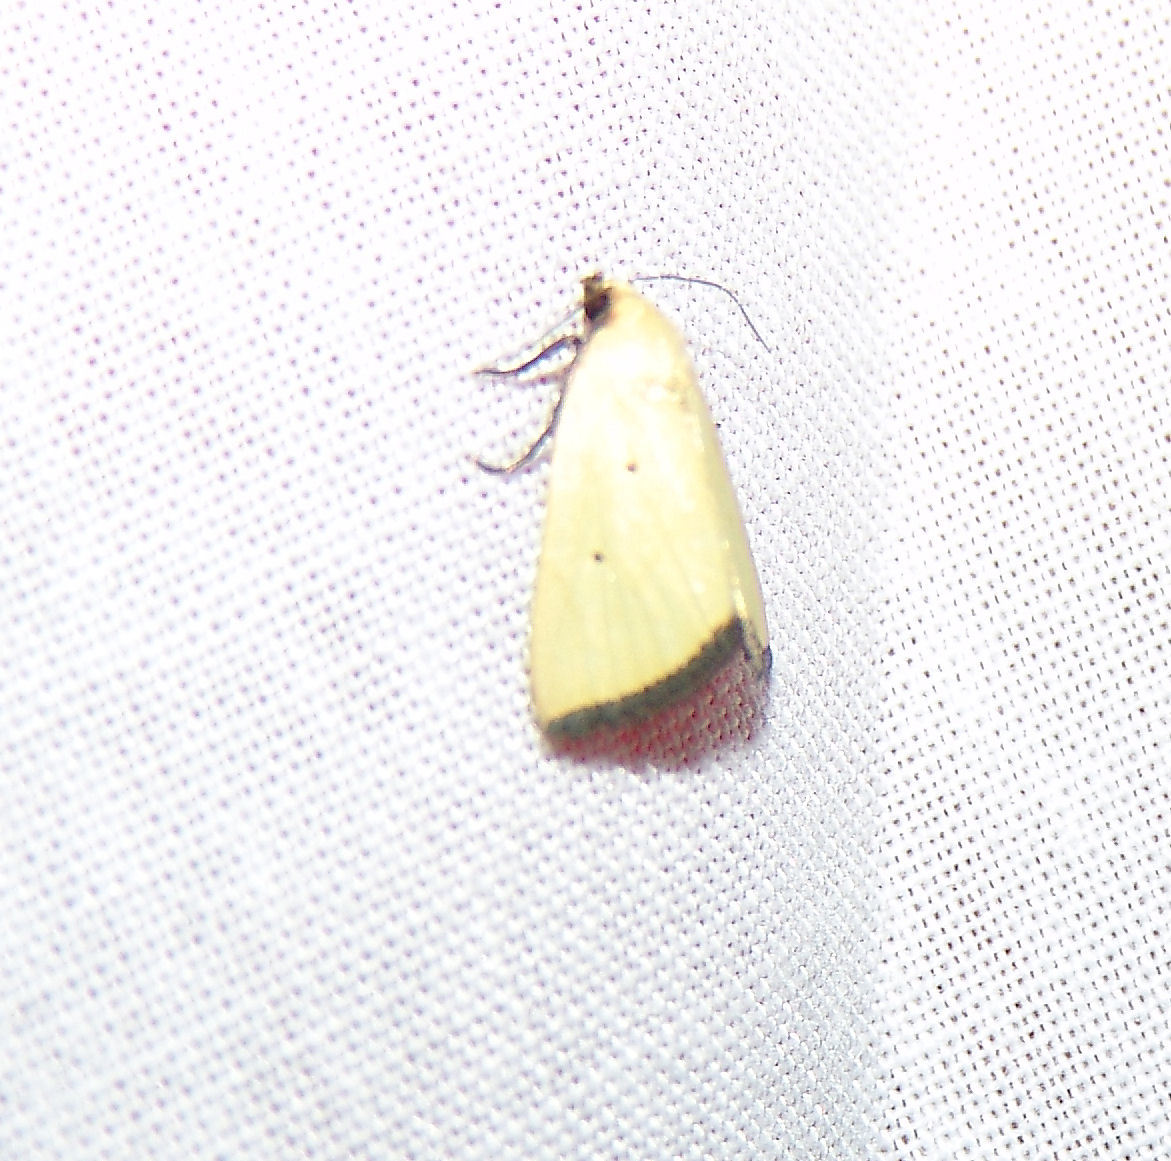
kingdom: Animalia
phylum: Arthropoda
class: Insecta
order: Lepidoptera
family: Noctuidae
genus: Marimatha
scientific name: Marimatha nigrofimbria
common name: Black-bordered lemon moth
